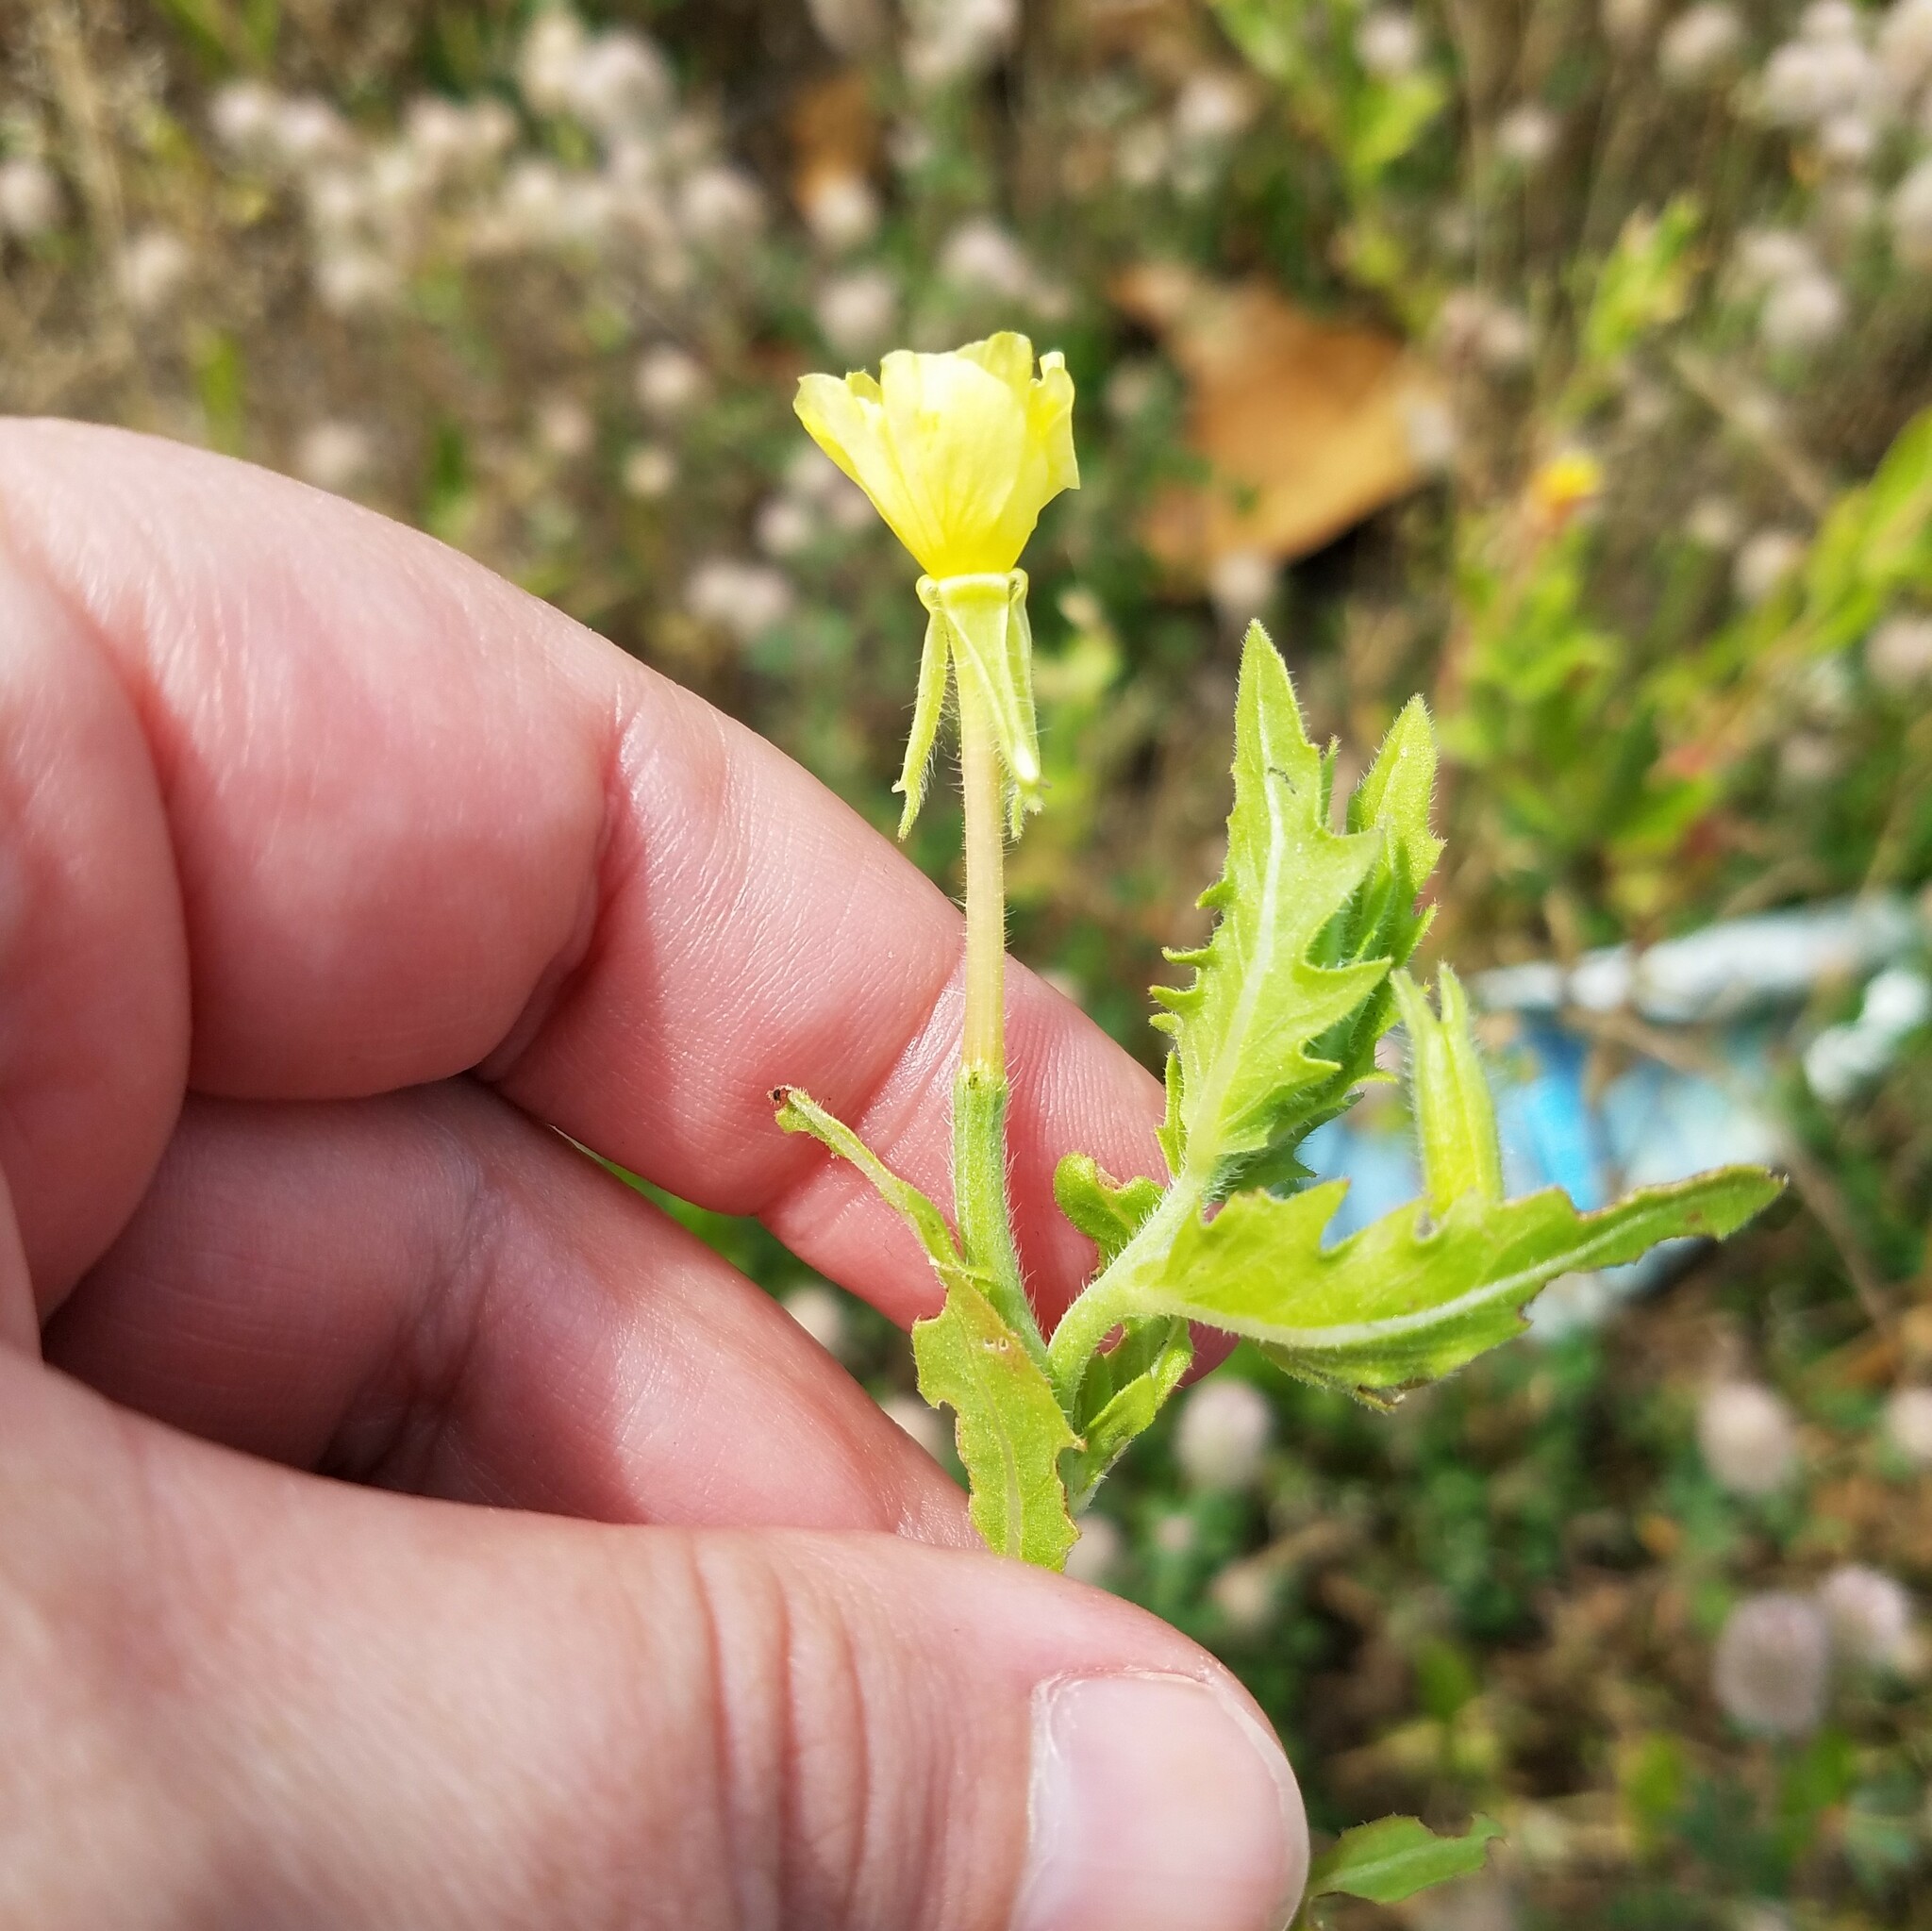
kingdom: Plantae
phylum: Tracheophyta
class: Magnoliopsida
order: Myrtales
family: Onagraceae
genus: Oenothera
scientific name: Oenothera laciniata
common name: Cut-leaved evening-primrose
